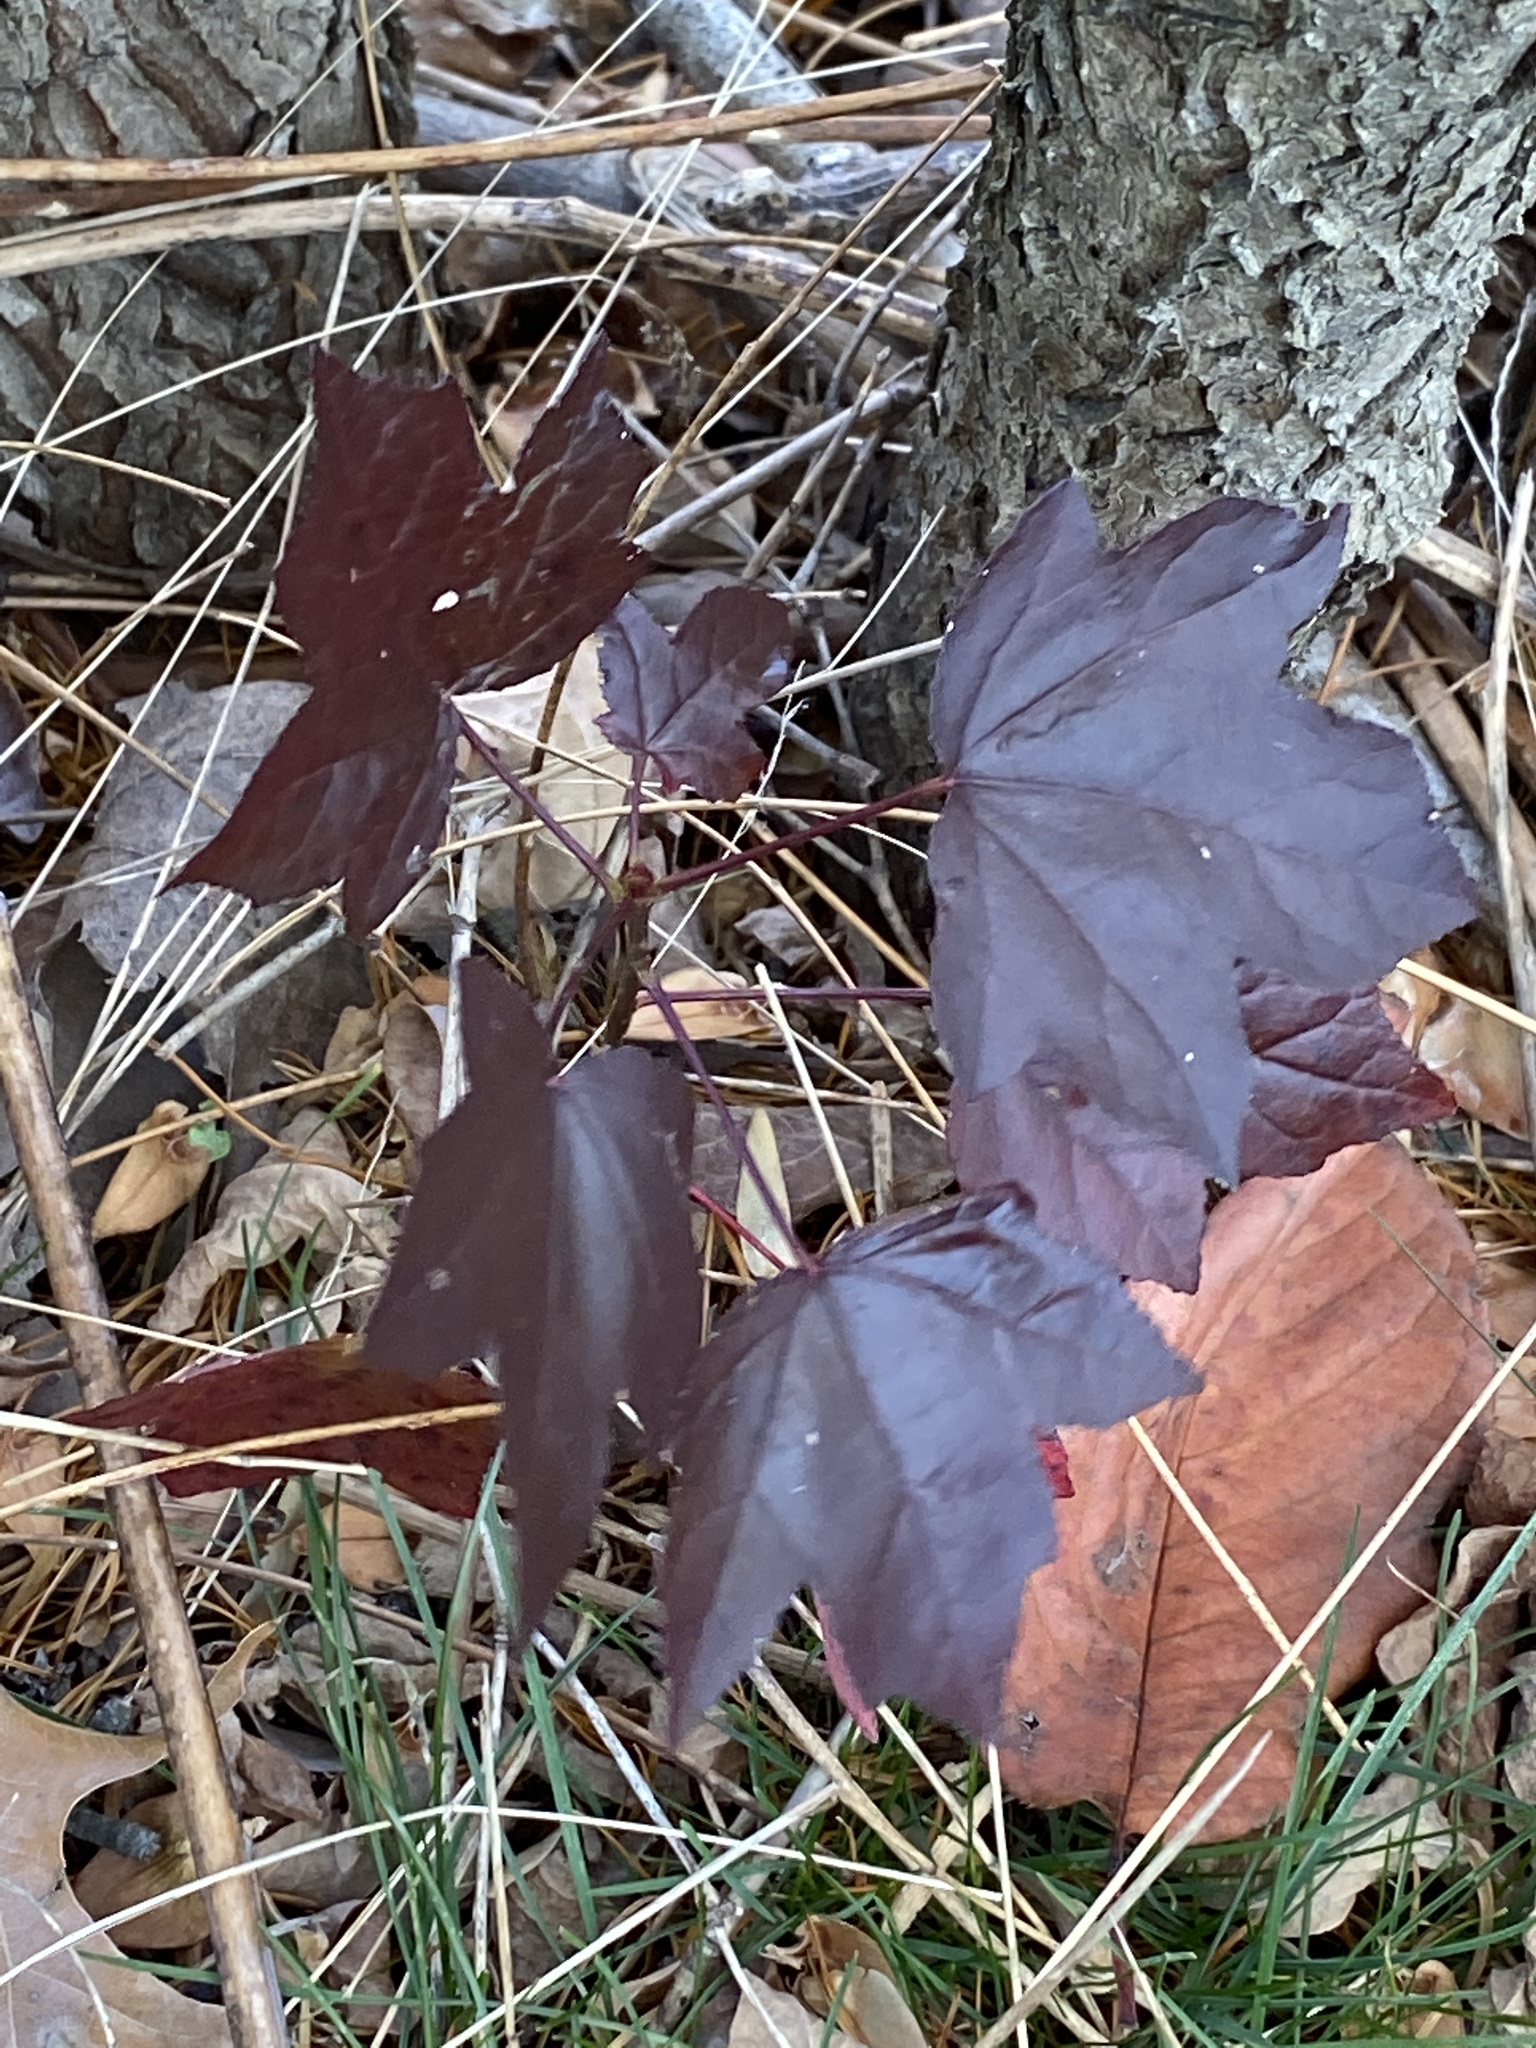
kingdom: Plantae
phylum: Tracheophyta
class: Magnoliopsida
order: Saxifragales
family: Altingiaceae
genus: Liquidambar
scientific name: Liquidambar styraciflua
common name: Sweet gum
